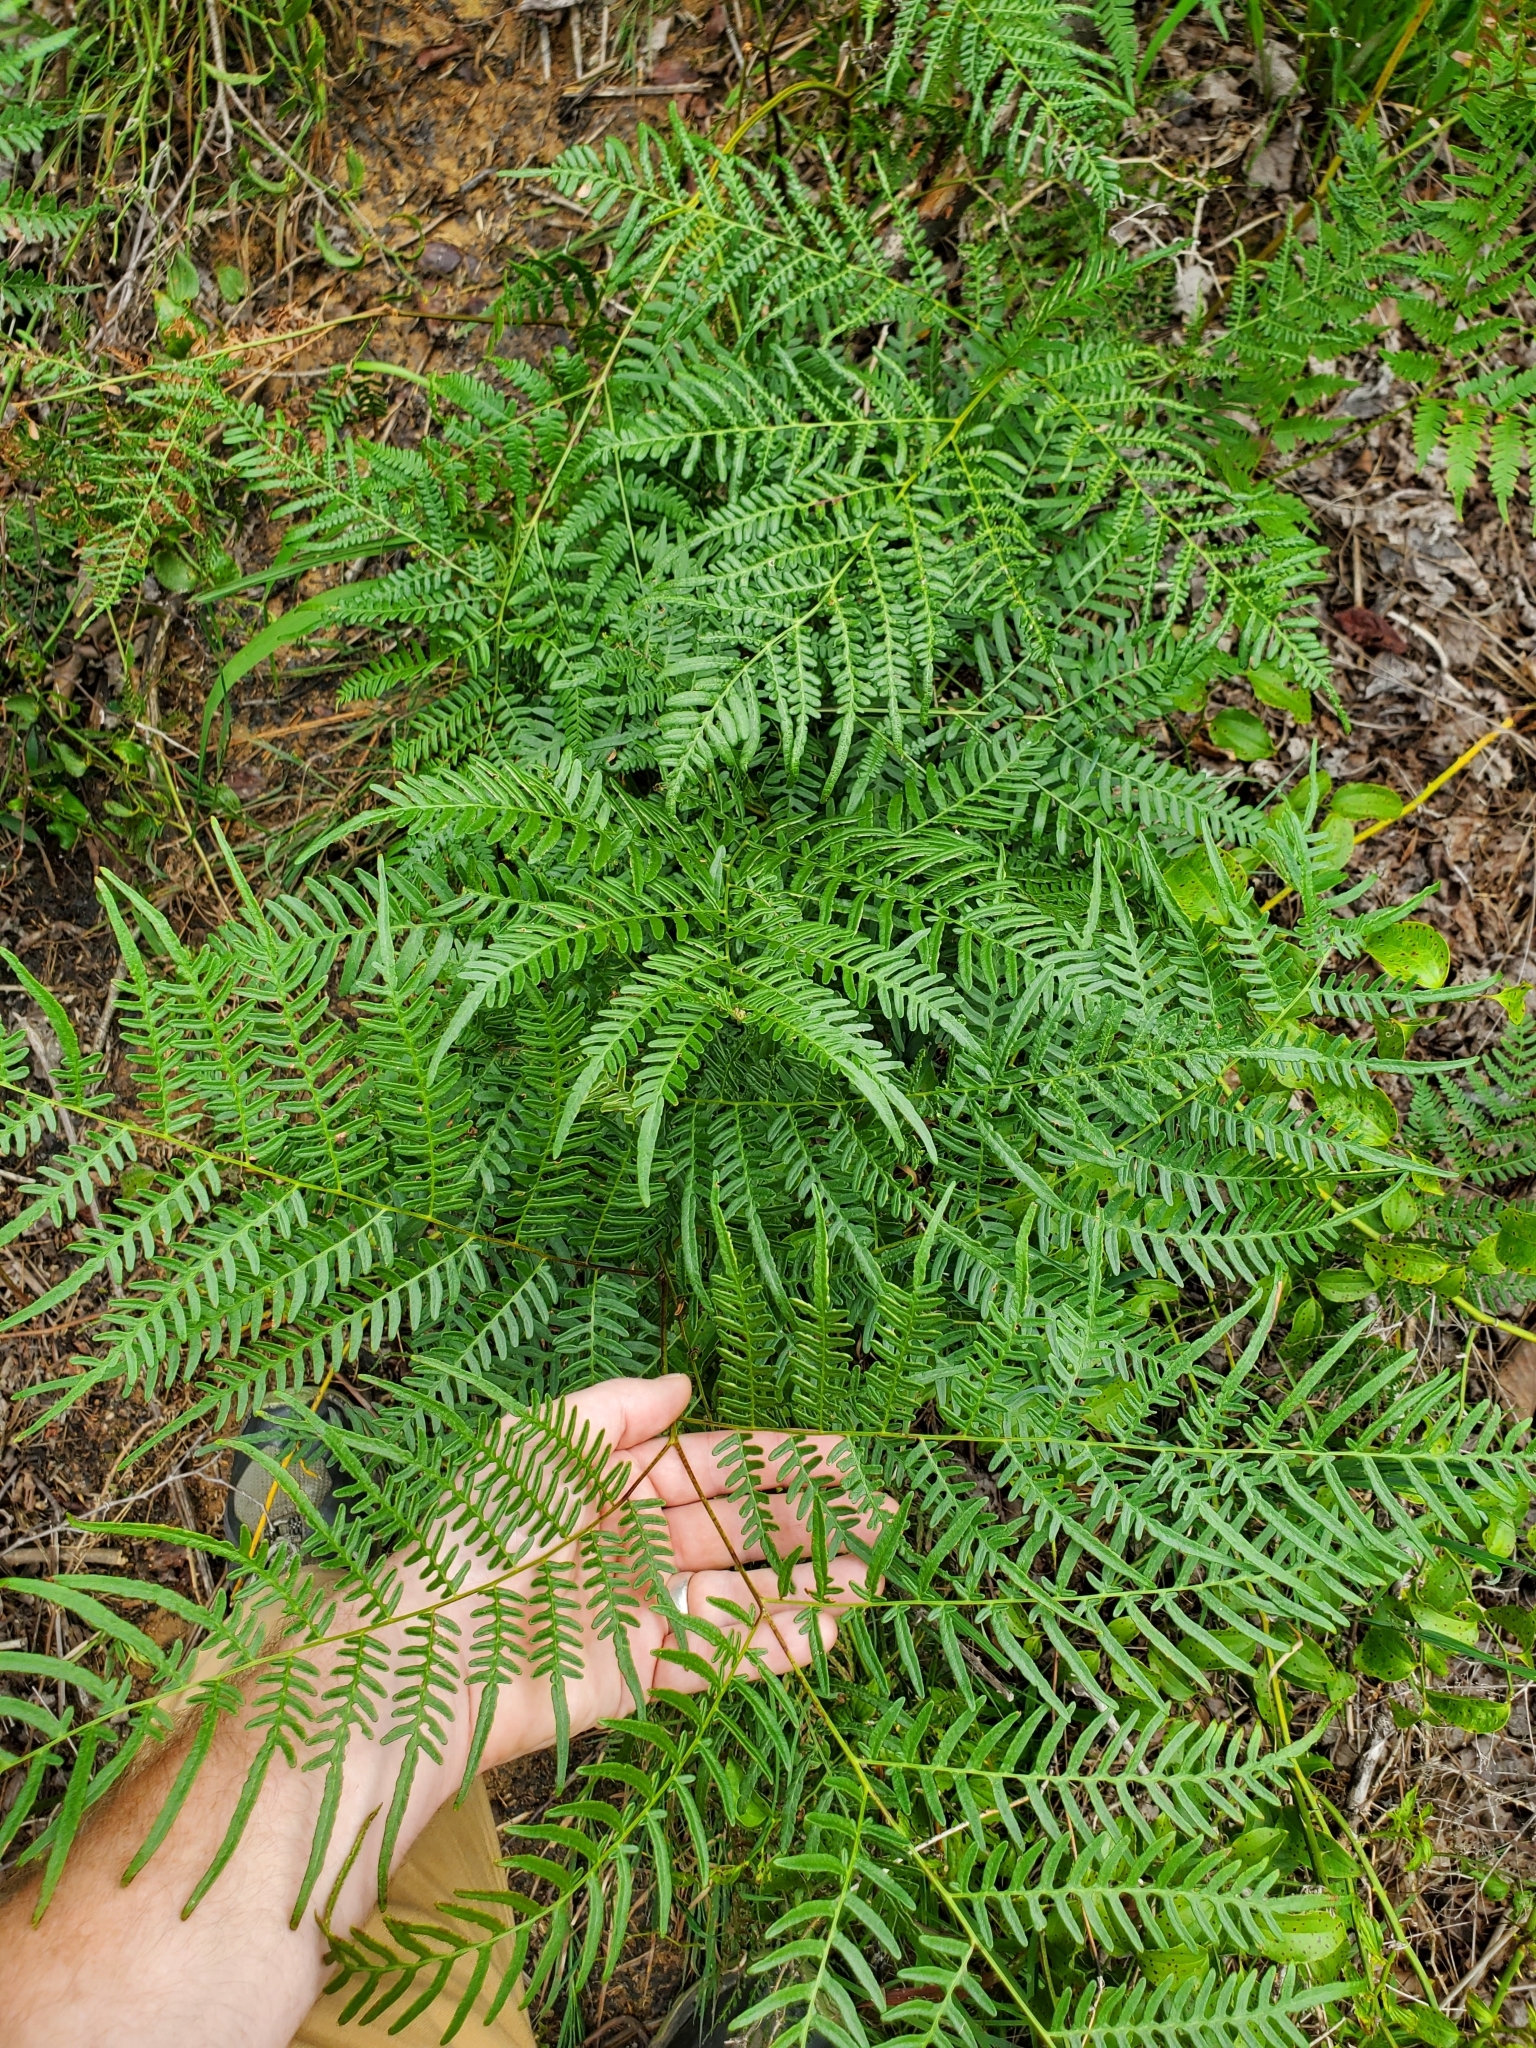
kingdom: Plantae
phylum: Tracheophyta
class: Polypodiopsida
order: Polypodiales
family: Dennstaedtiaceae
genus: Pteridium
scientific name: Pteridium aquilinum
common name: Bracken
